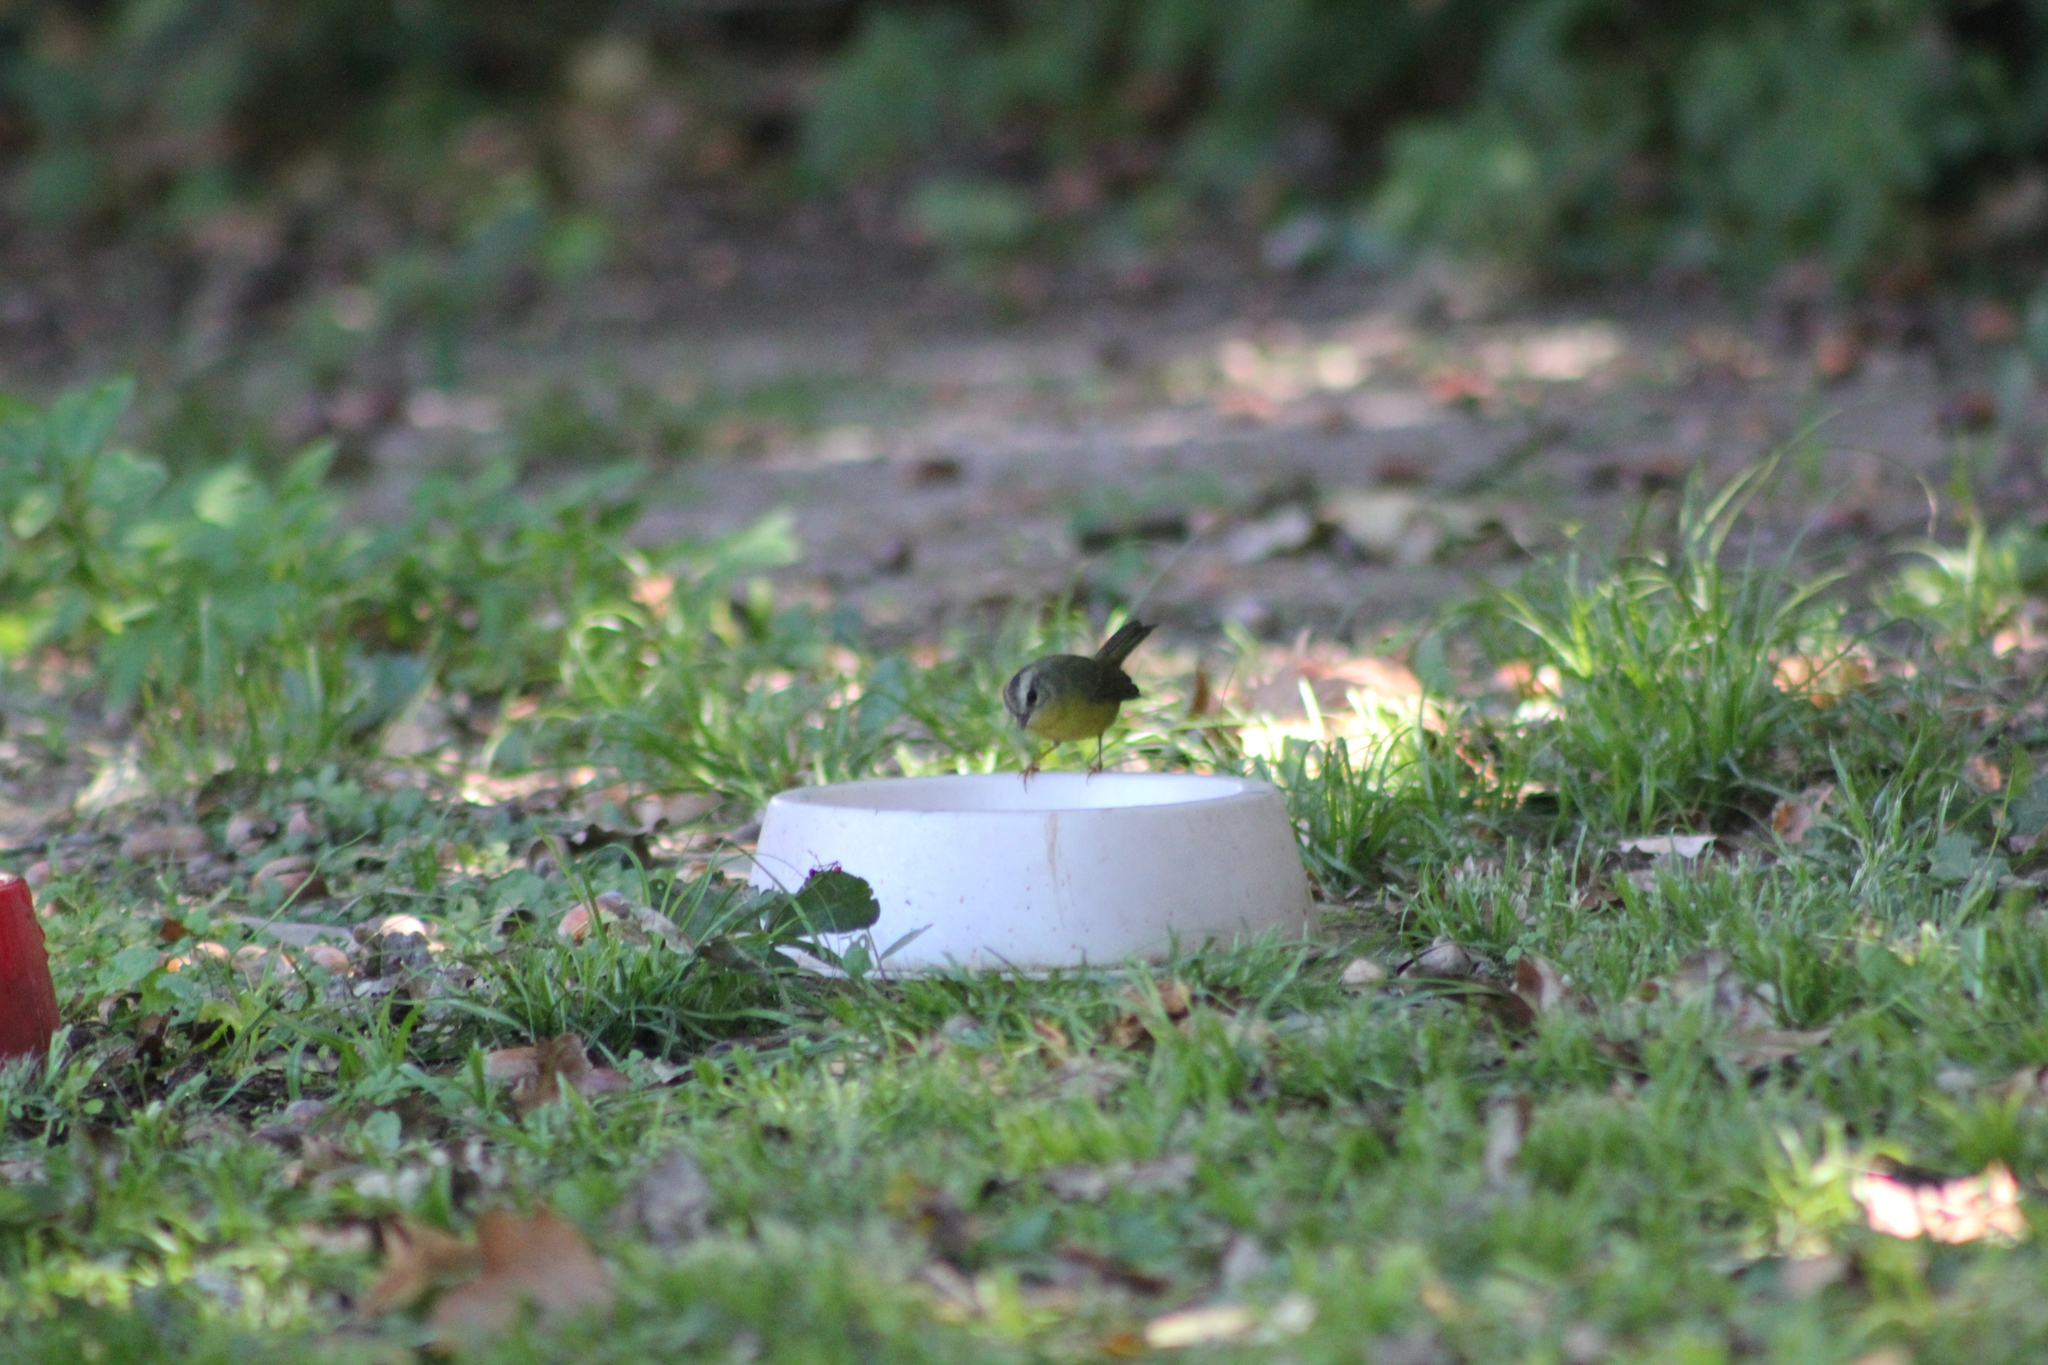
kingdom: Animalia
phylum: Chordata
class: Aves
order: Passeriformes
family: Parulidae
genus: Basileuterus
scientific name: Basileuterus culicivorus
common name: Golden-crowned warbler
